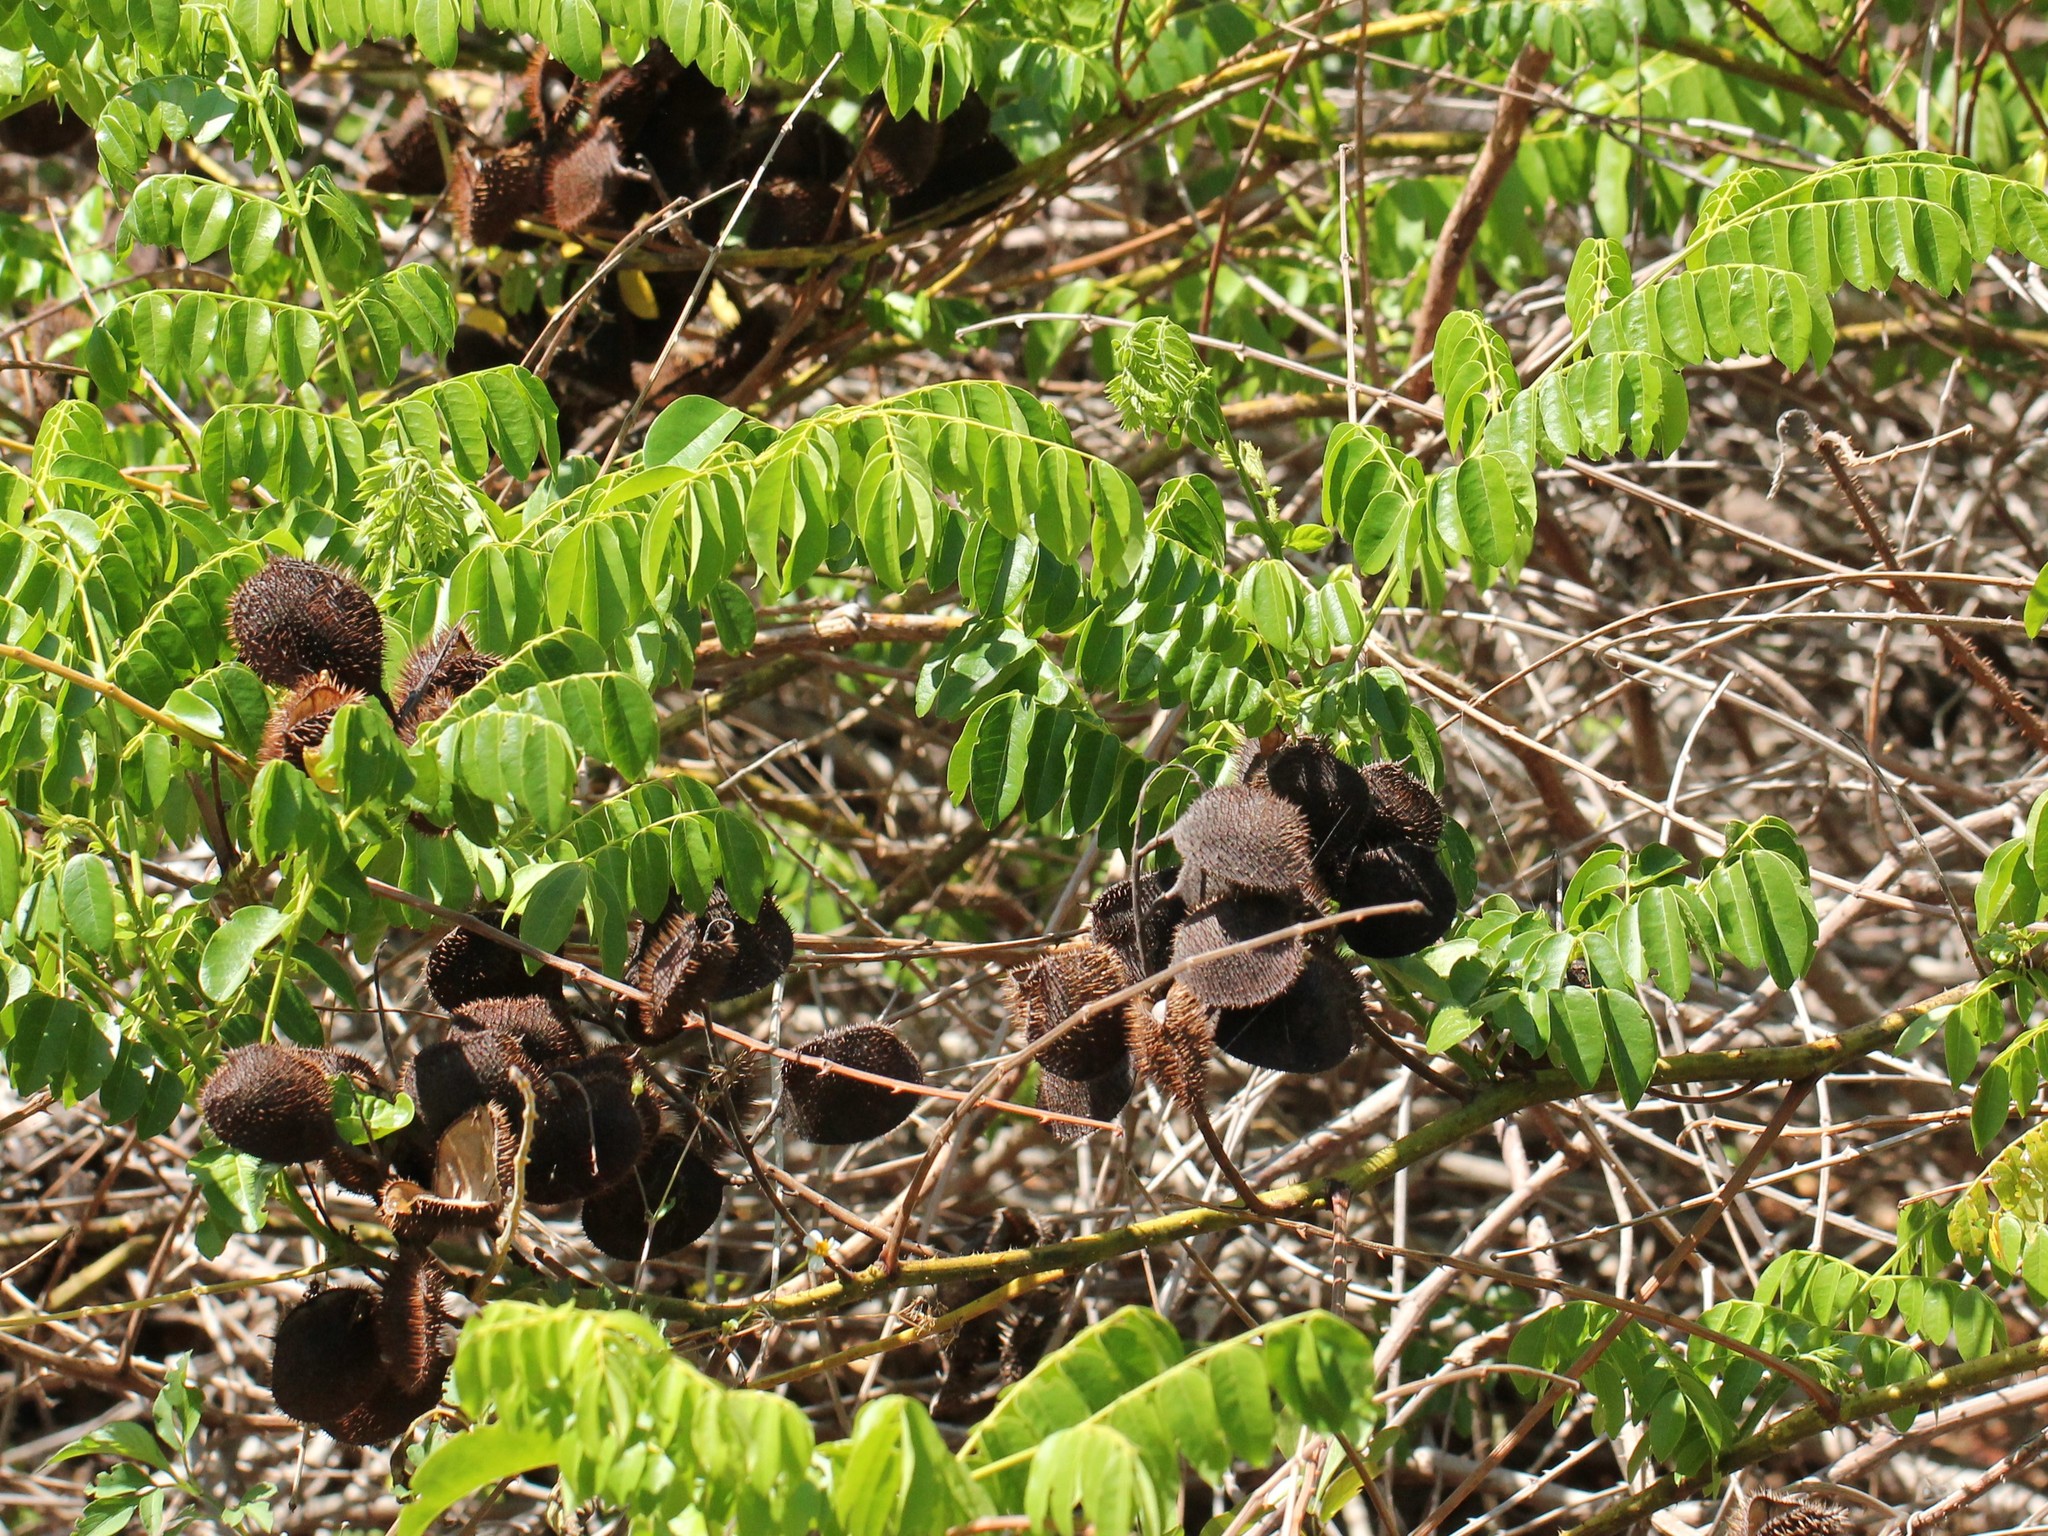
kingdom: Plantae
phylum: Tracheophyta
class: Magnoliopsida
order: Fabales
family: Fabaceae
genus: Guilandina
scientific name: Guilandina bonduc
